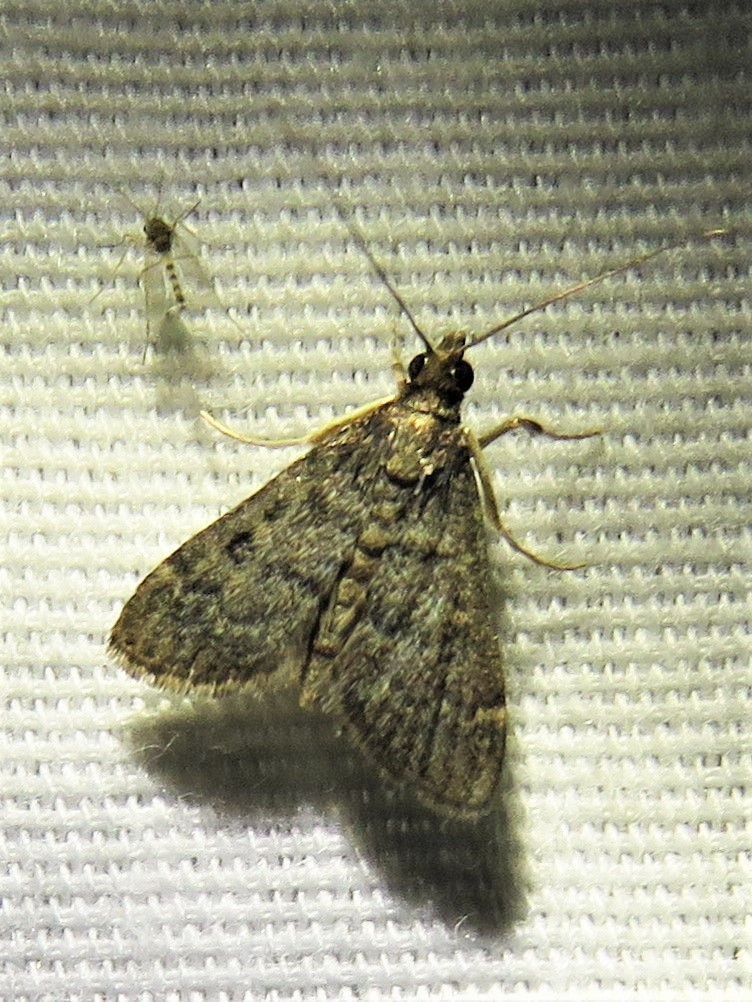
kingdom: Animalia
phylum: Arthropoda
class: Insecta
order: Lepidoptera
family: Crambidae
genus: Steniodes
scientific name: Steniodes declivalis
